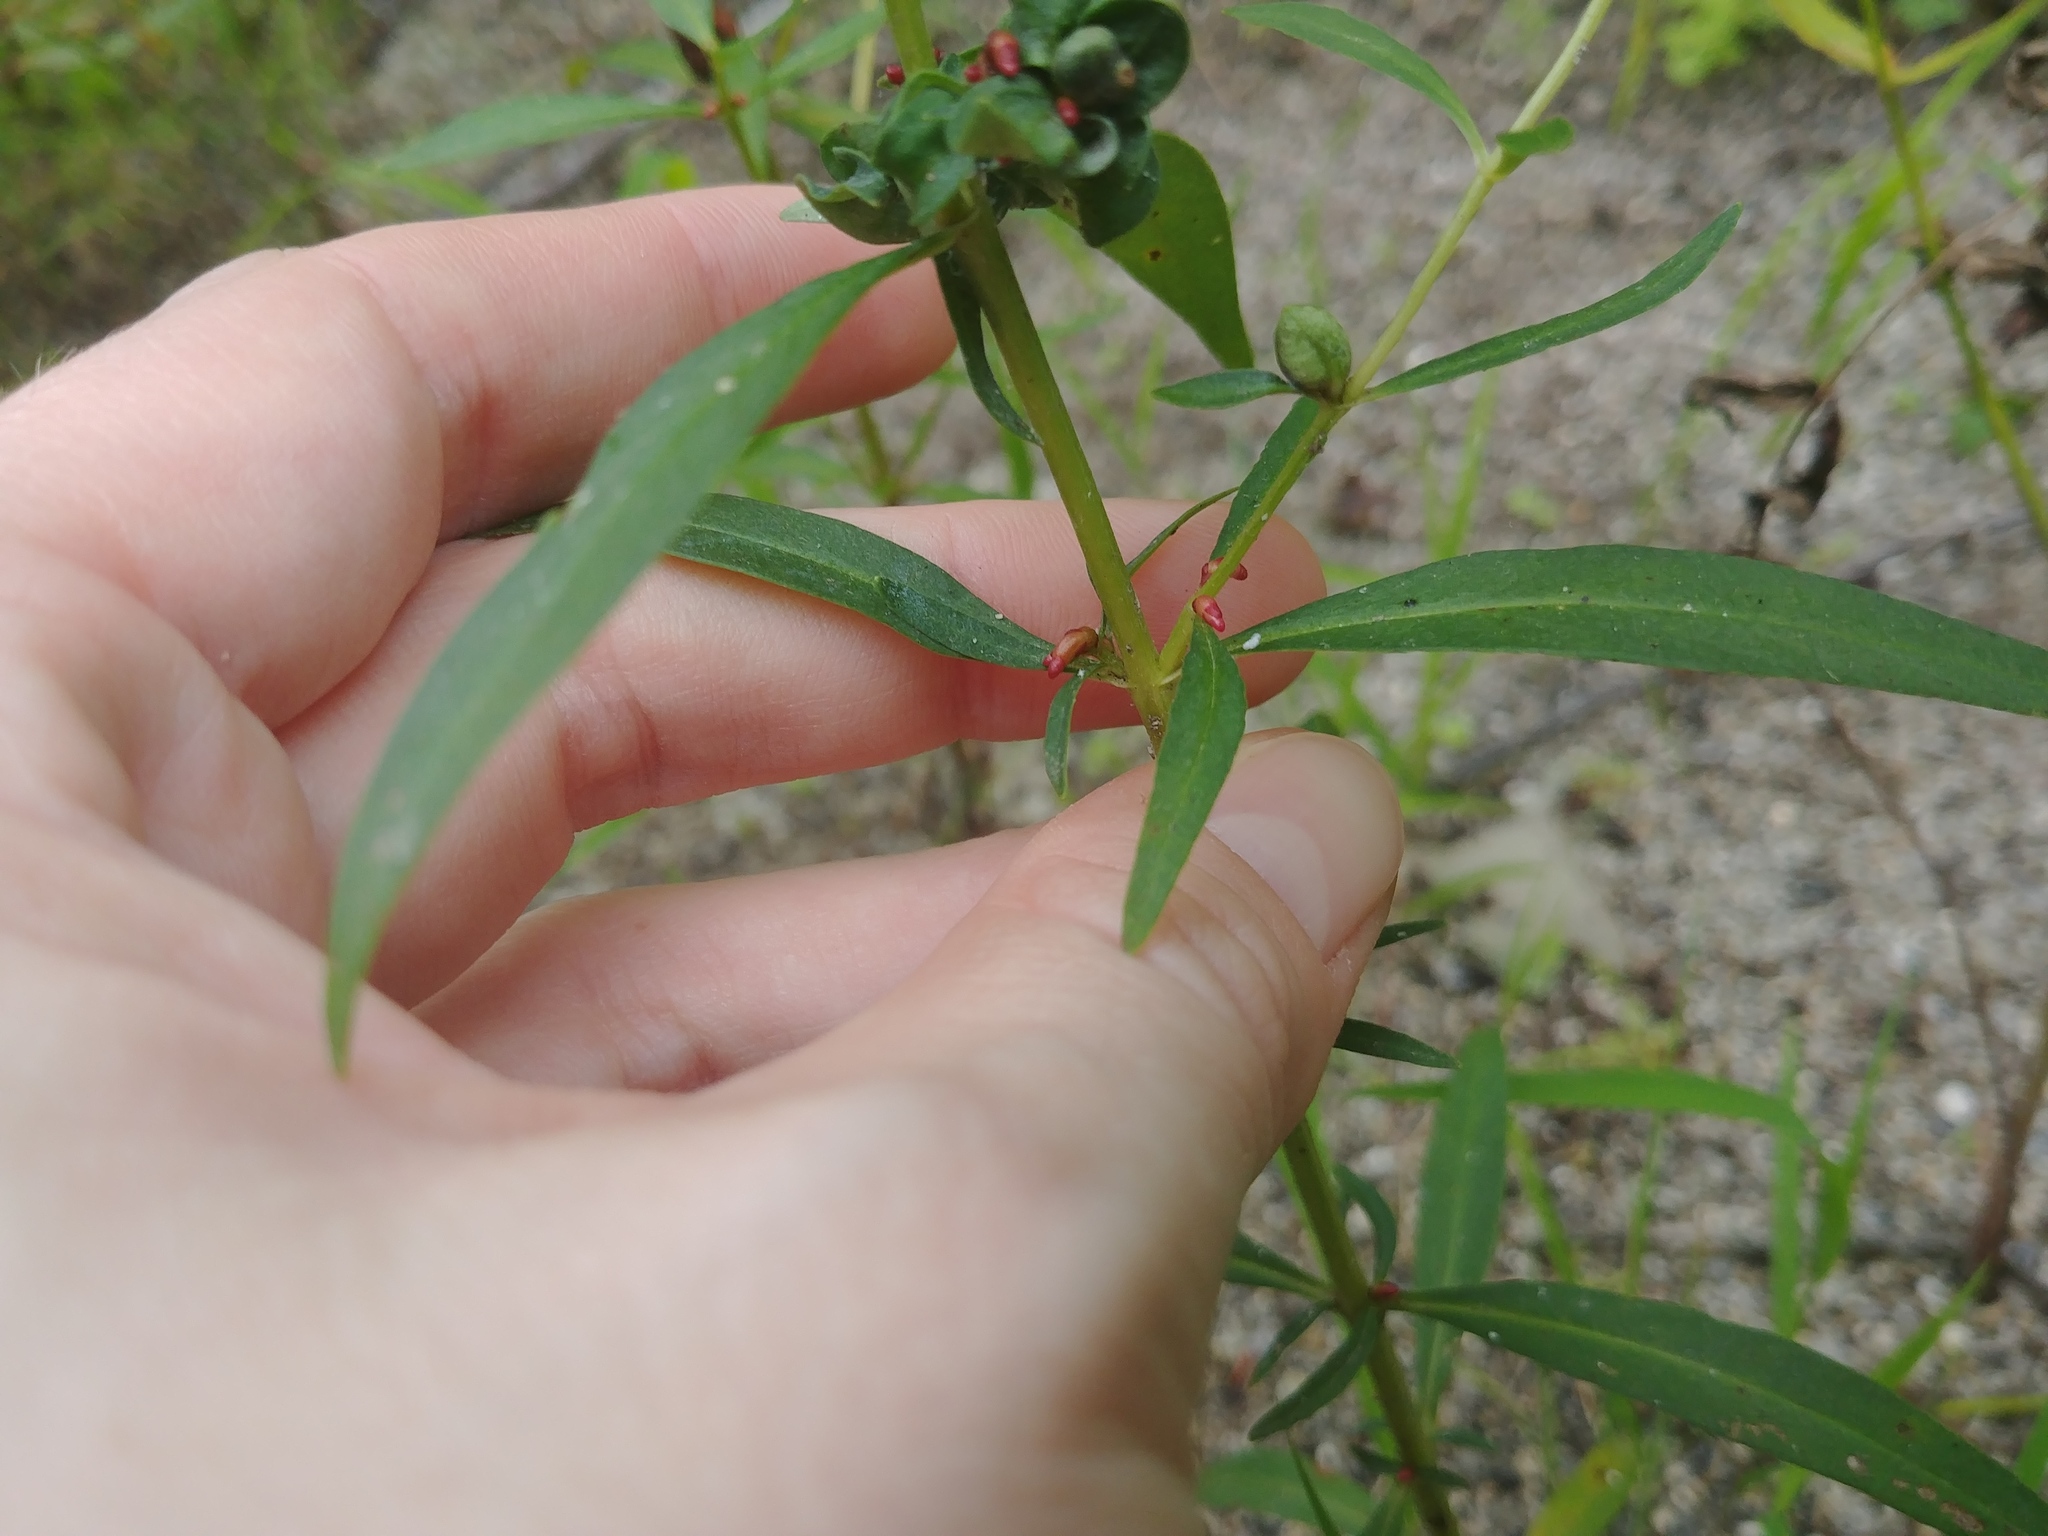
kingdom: Plantae
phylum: Tracheophyta
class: Magnoliopsida
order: Ericales
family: Primulaceae
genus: Lysimachia
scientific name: Lysimachia terrestris
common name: Lake loosestrife
